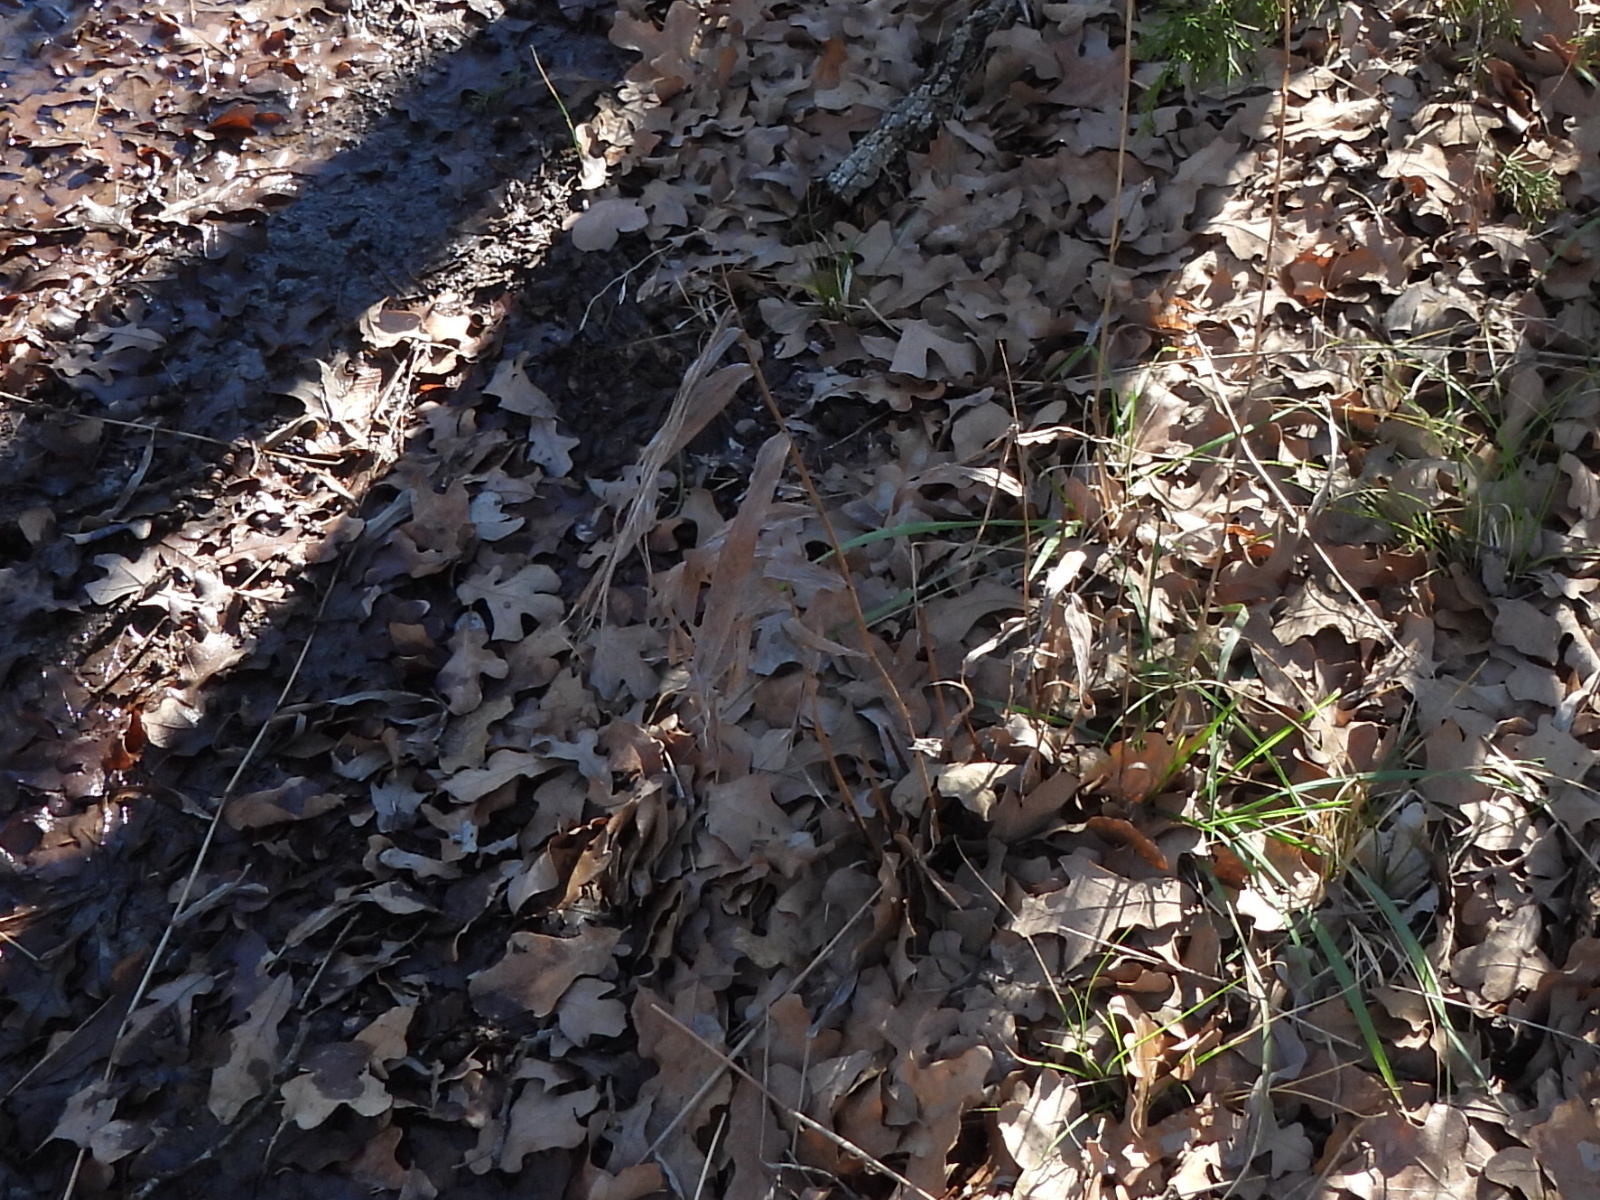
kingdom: Plantae
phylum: Tracheophyta
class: Liliopsida
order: Poales
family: Poaceae
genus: Chasmanthium
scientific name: Chasmanthium latifolium
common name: Broad-leaved chasmanthium
